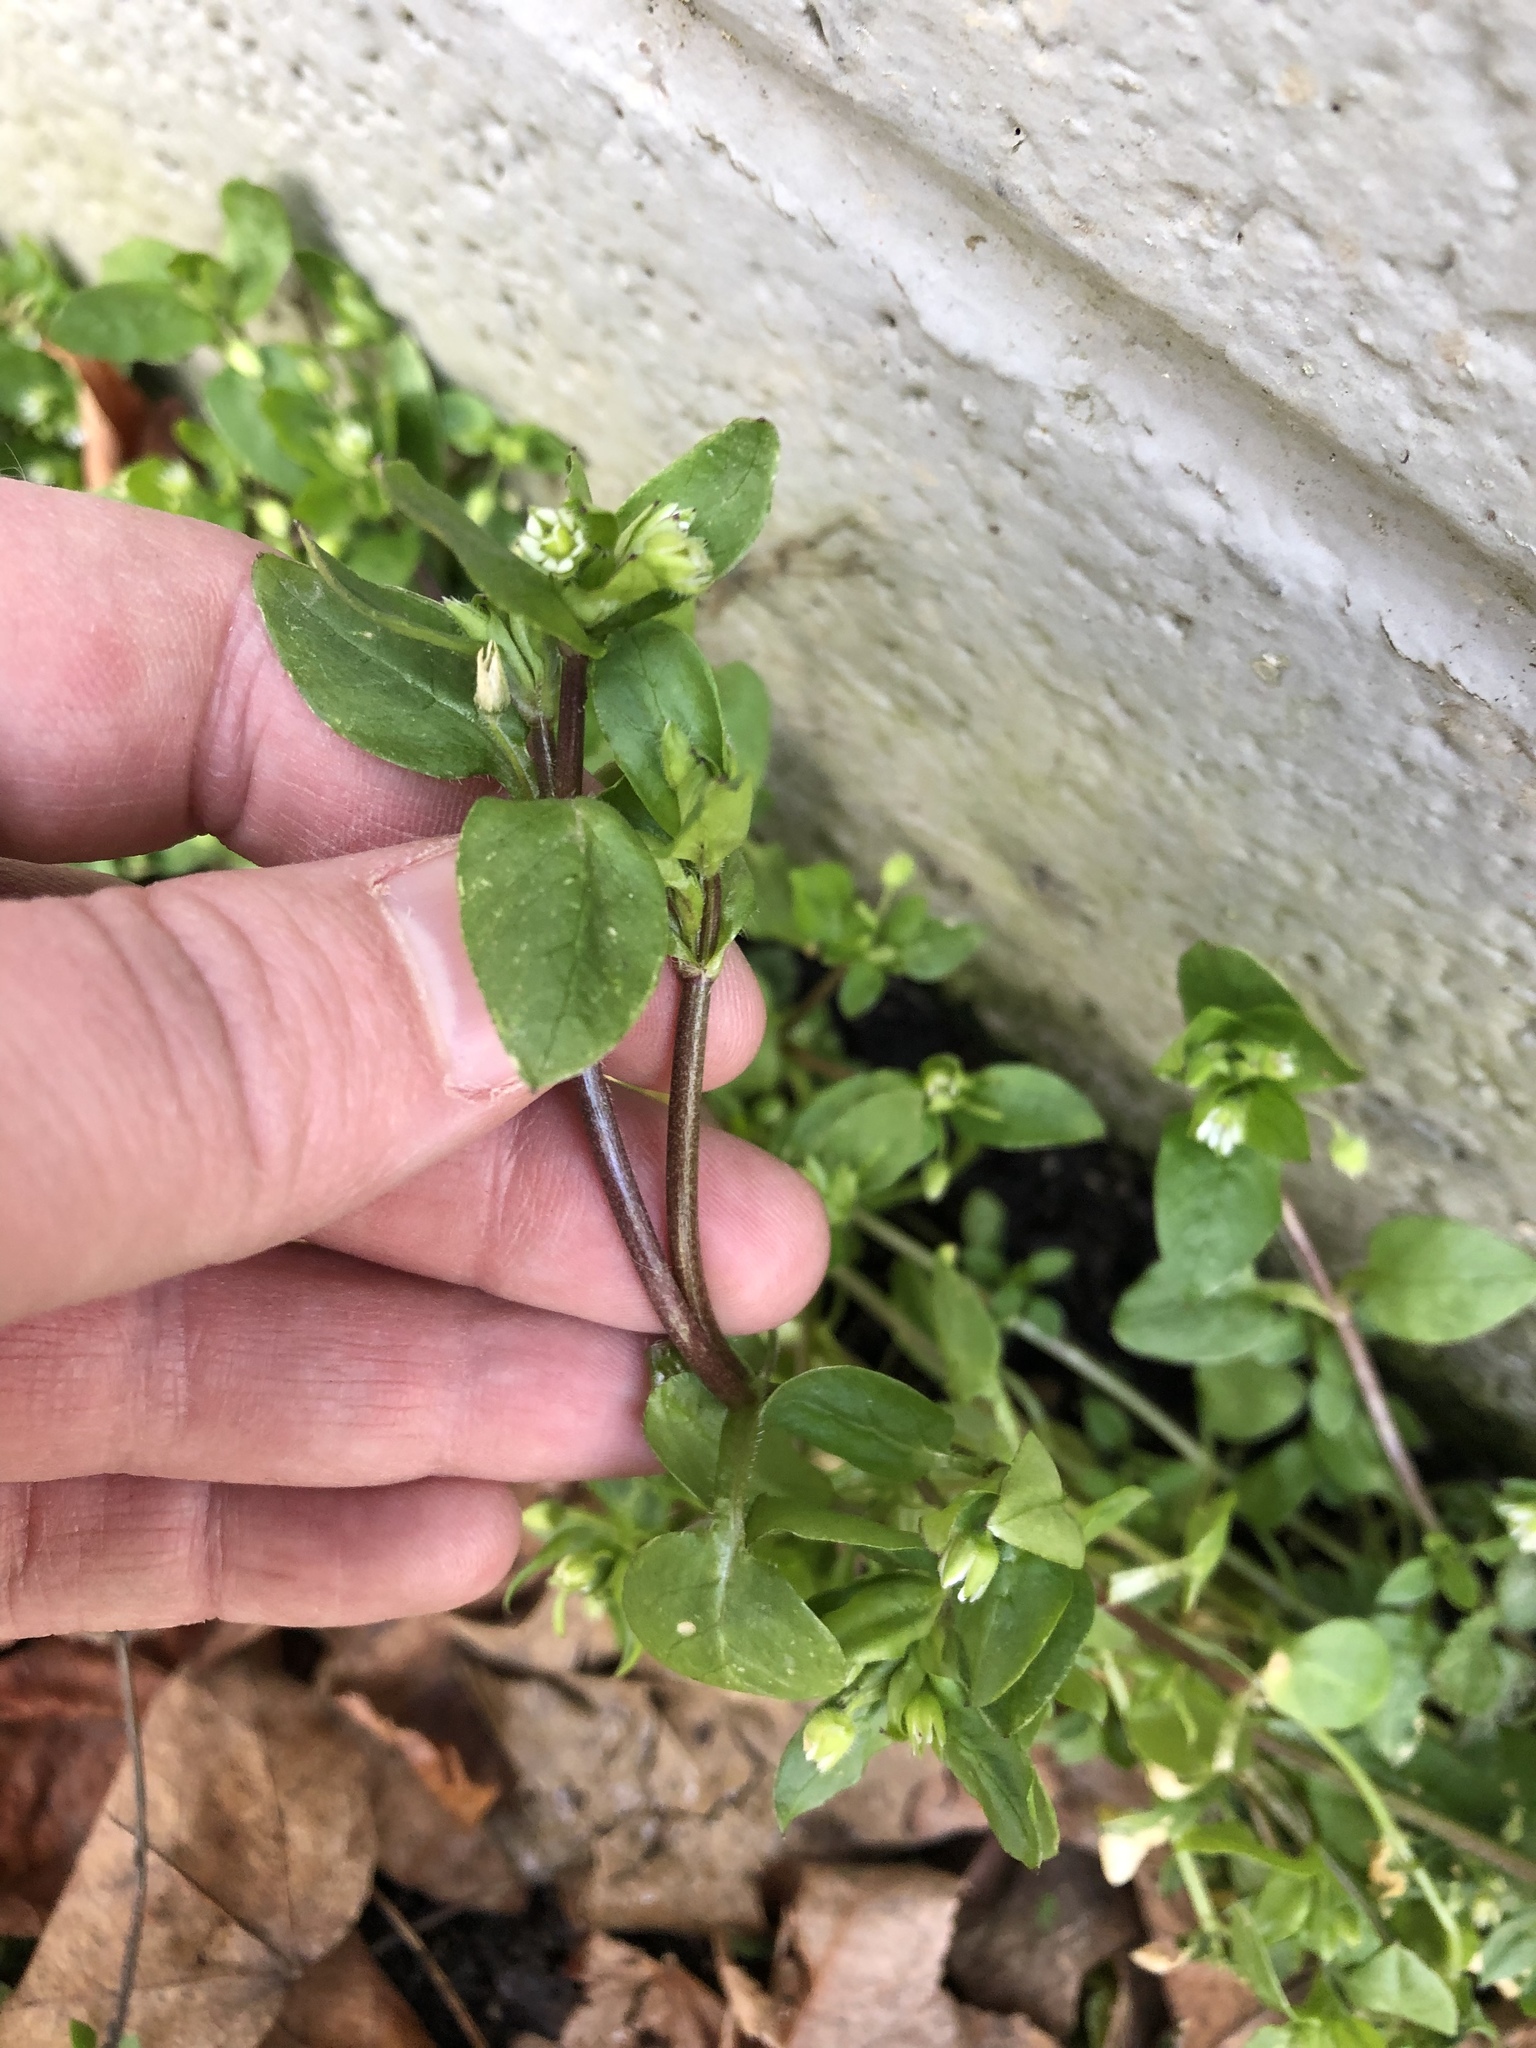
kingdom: Plantae
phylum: Tracheophyta
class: Magnoliopsida
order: Caryophyllales
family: Caryophyllaceae
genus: Stellaria
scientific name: Stellaria media
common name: Common chickweed
